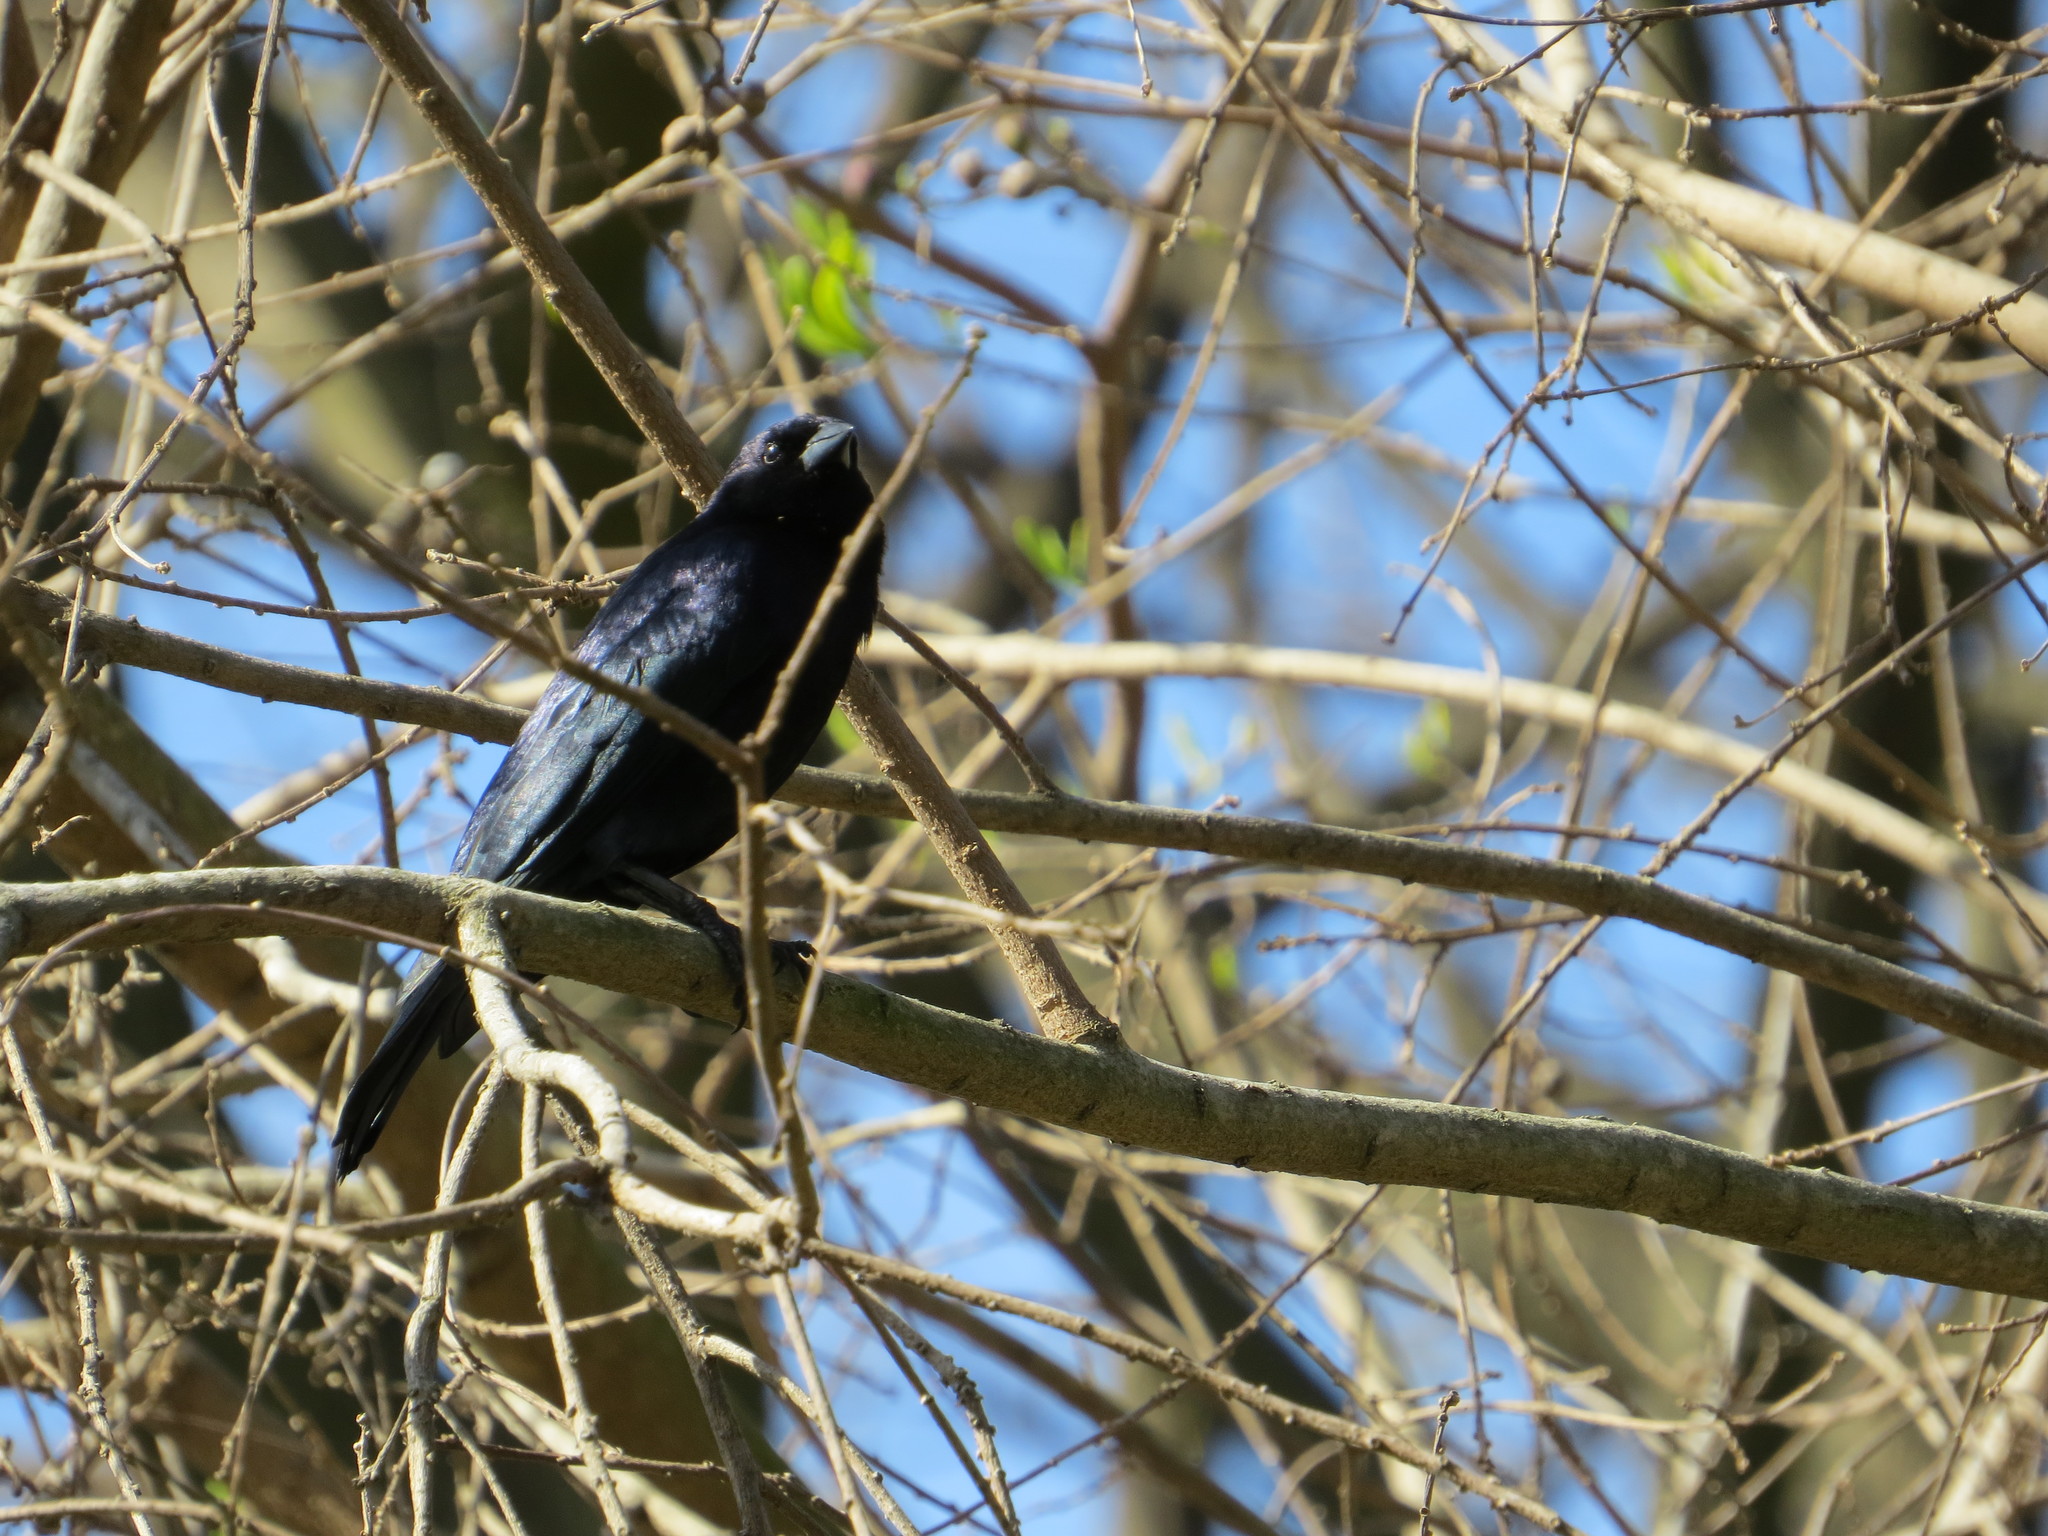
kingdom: Animalia
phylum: Chordata
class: Aves
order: Passeriformes
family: Icteridae
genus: Molothrus
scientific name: Molothrus bonariensis
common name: Shiny cowbird
